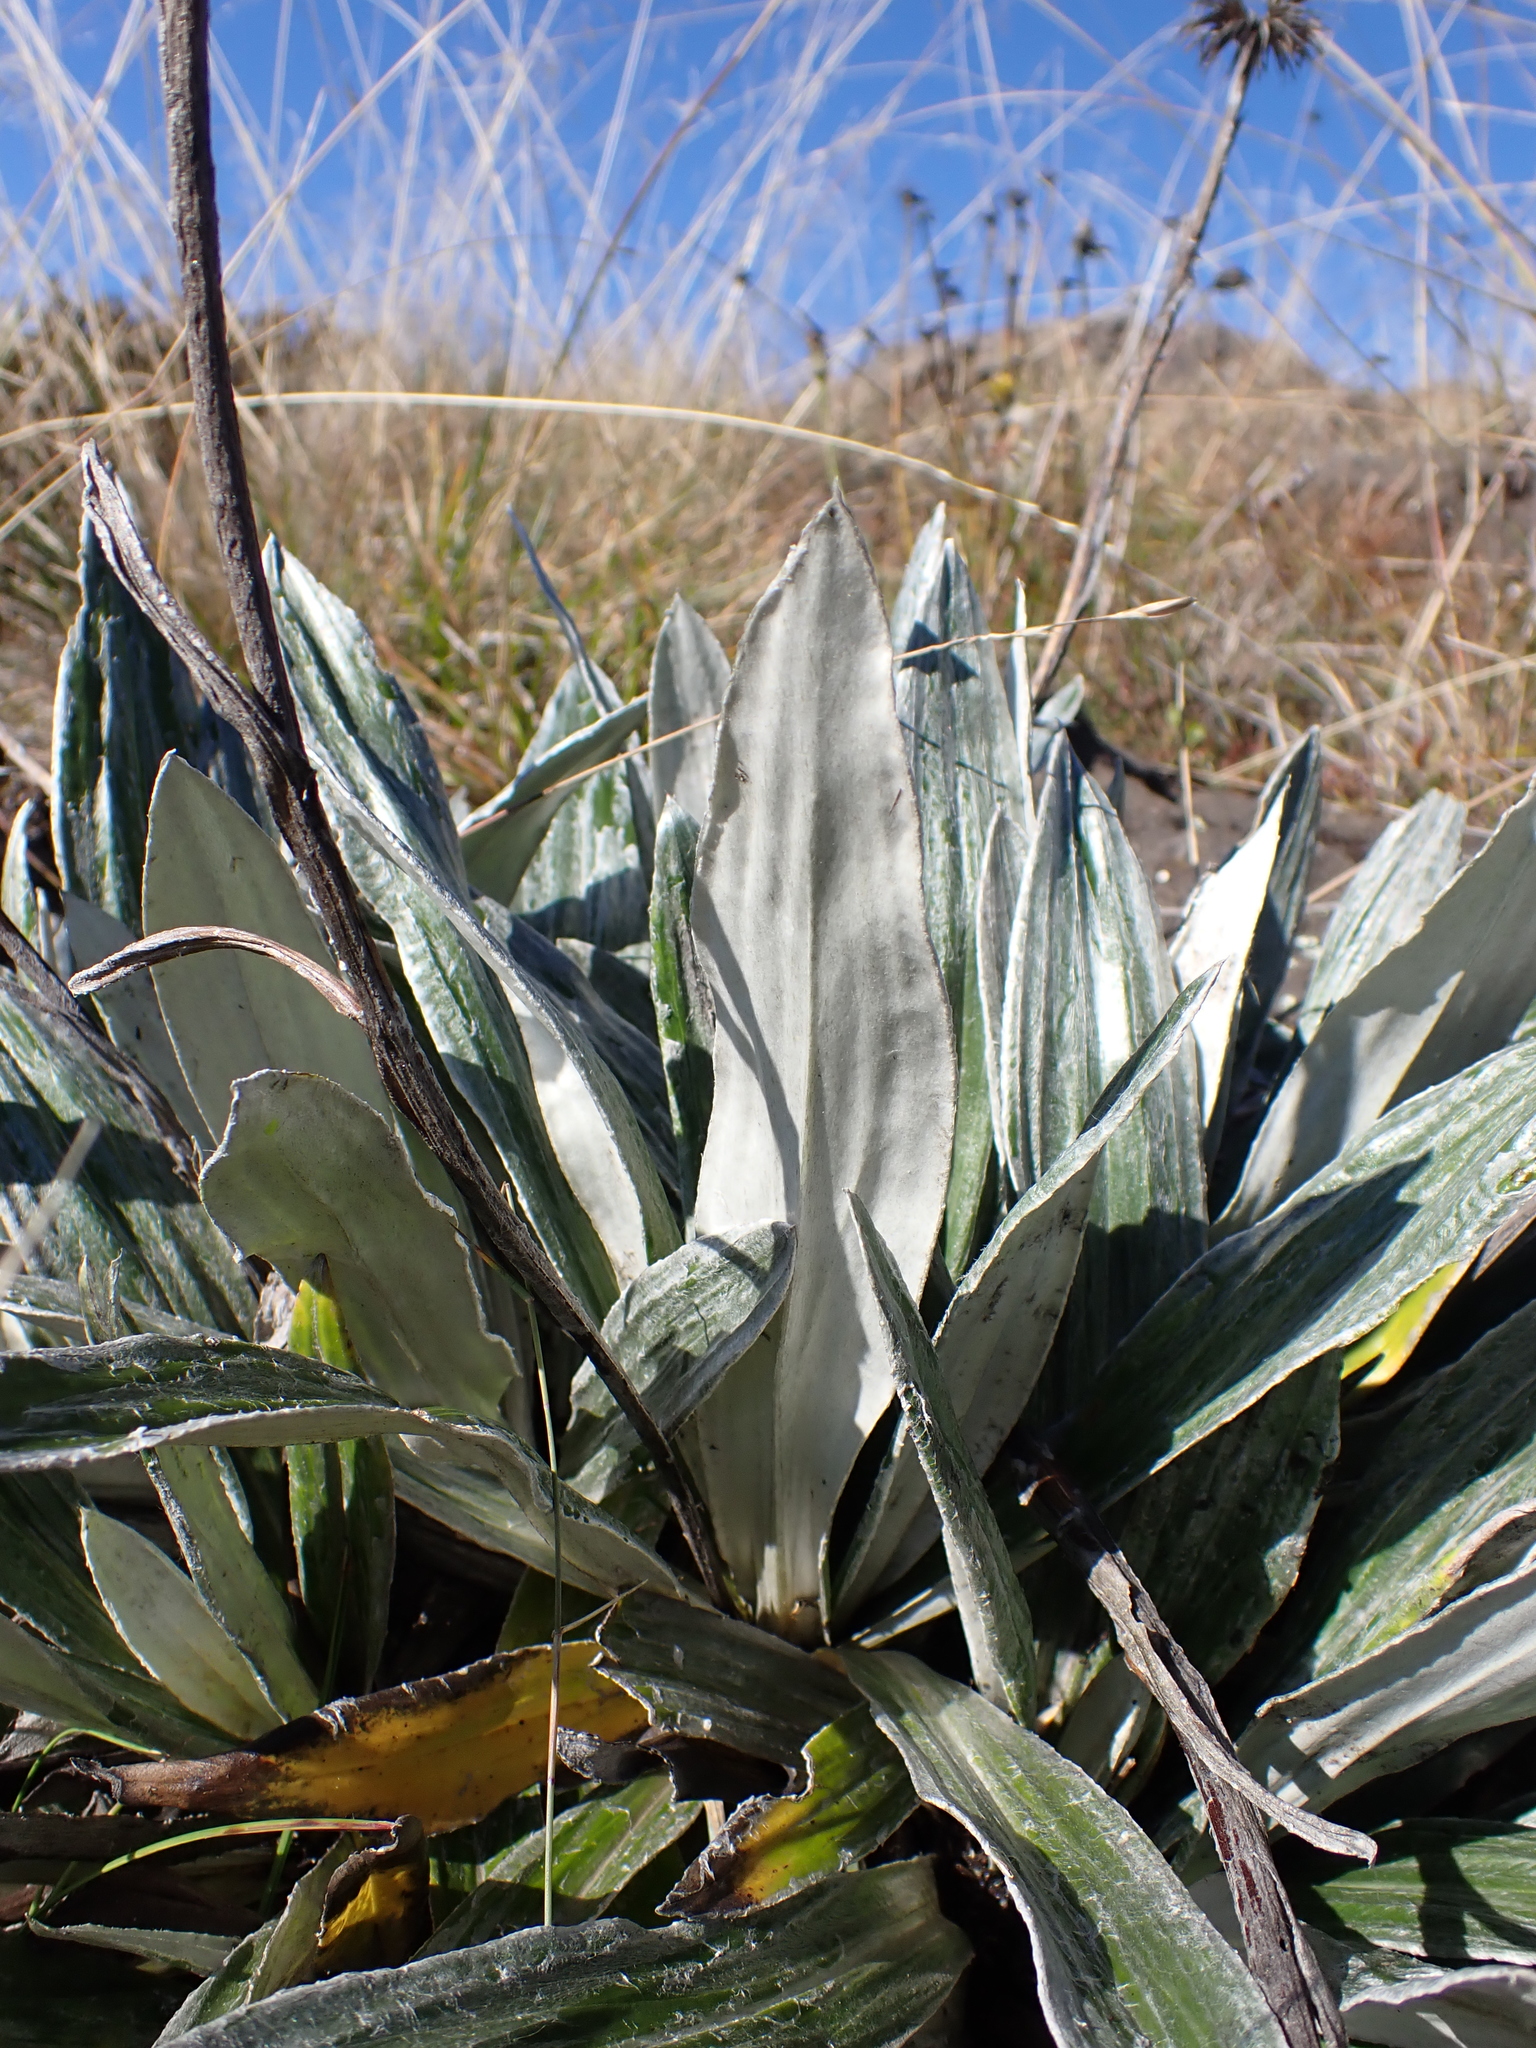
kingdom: Plantae
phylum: Tracheophyta
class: Magnoliopsida
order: Asterales
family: Asteraceae
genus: Celmisia
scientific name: Celmisia latifolia
